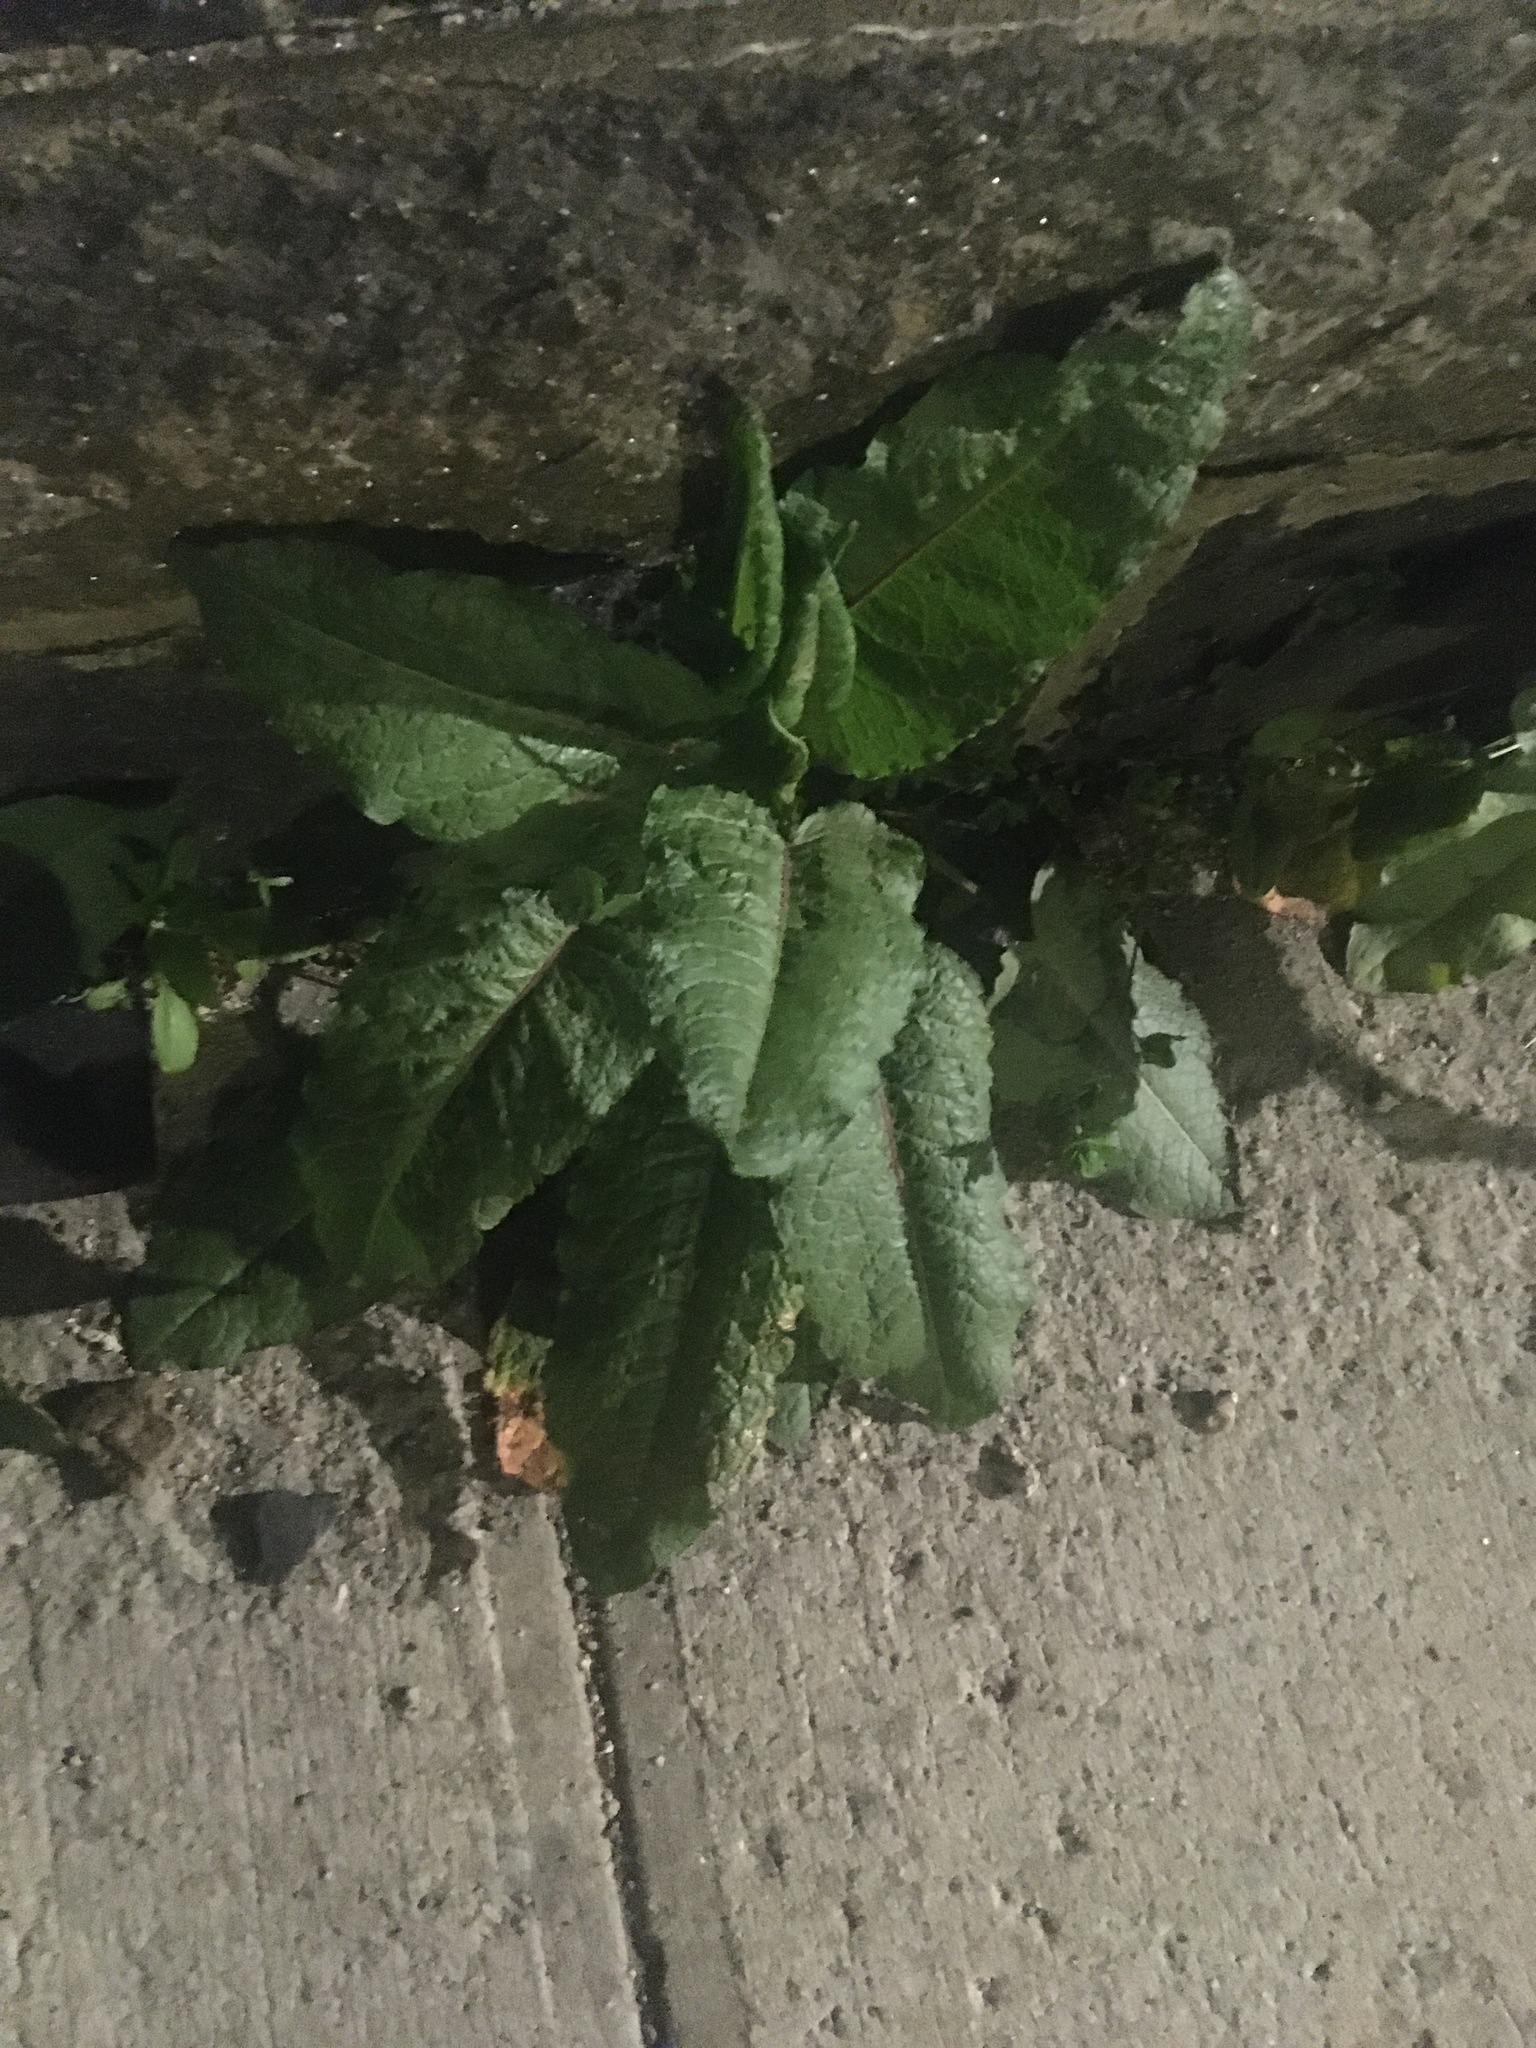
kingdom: Plantae
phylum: Tracheophyta
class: Magnoliopsida
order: Caryophyllales
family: Polygonaceae
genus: Rumex
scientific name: Rumex obtusifolius
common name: Bitter dock
